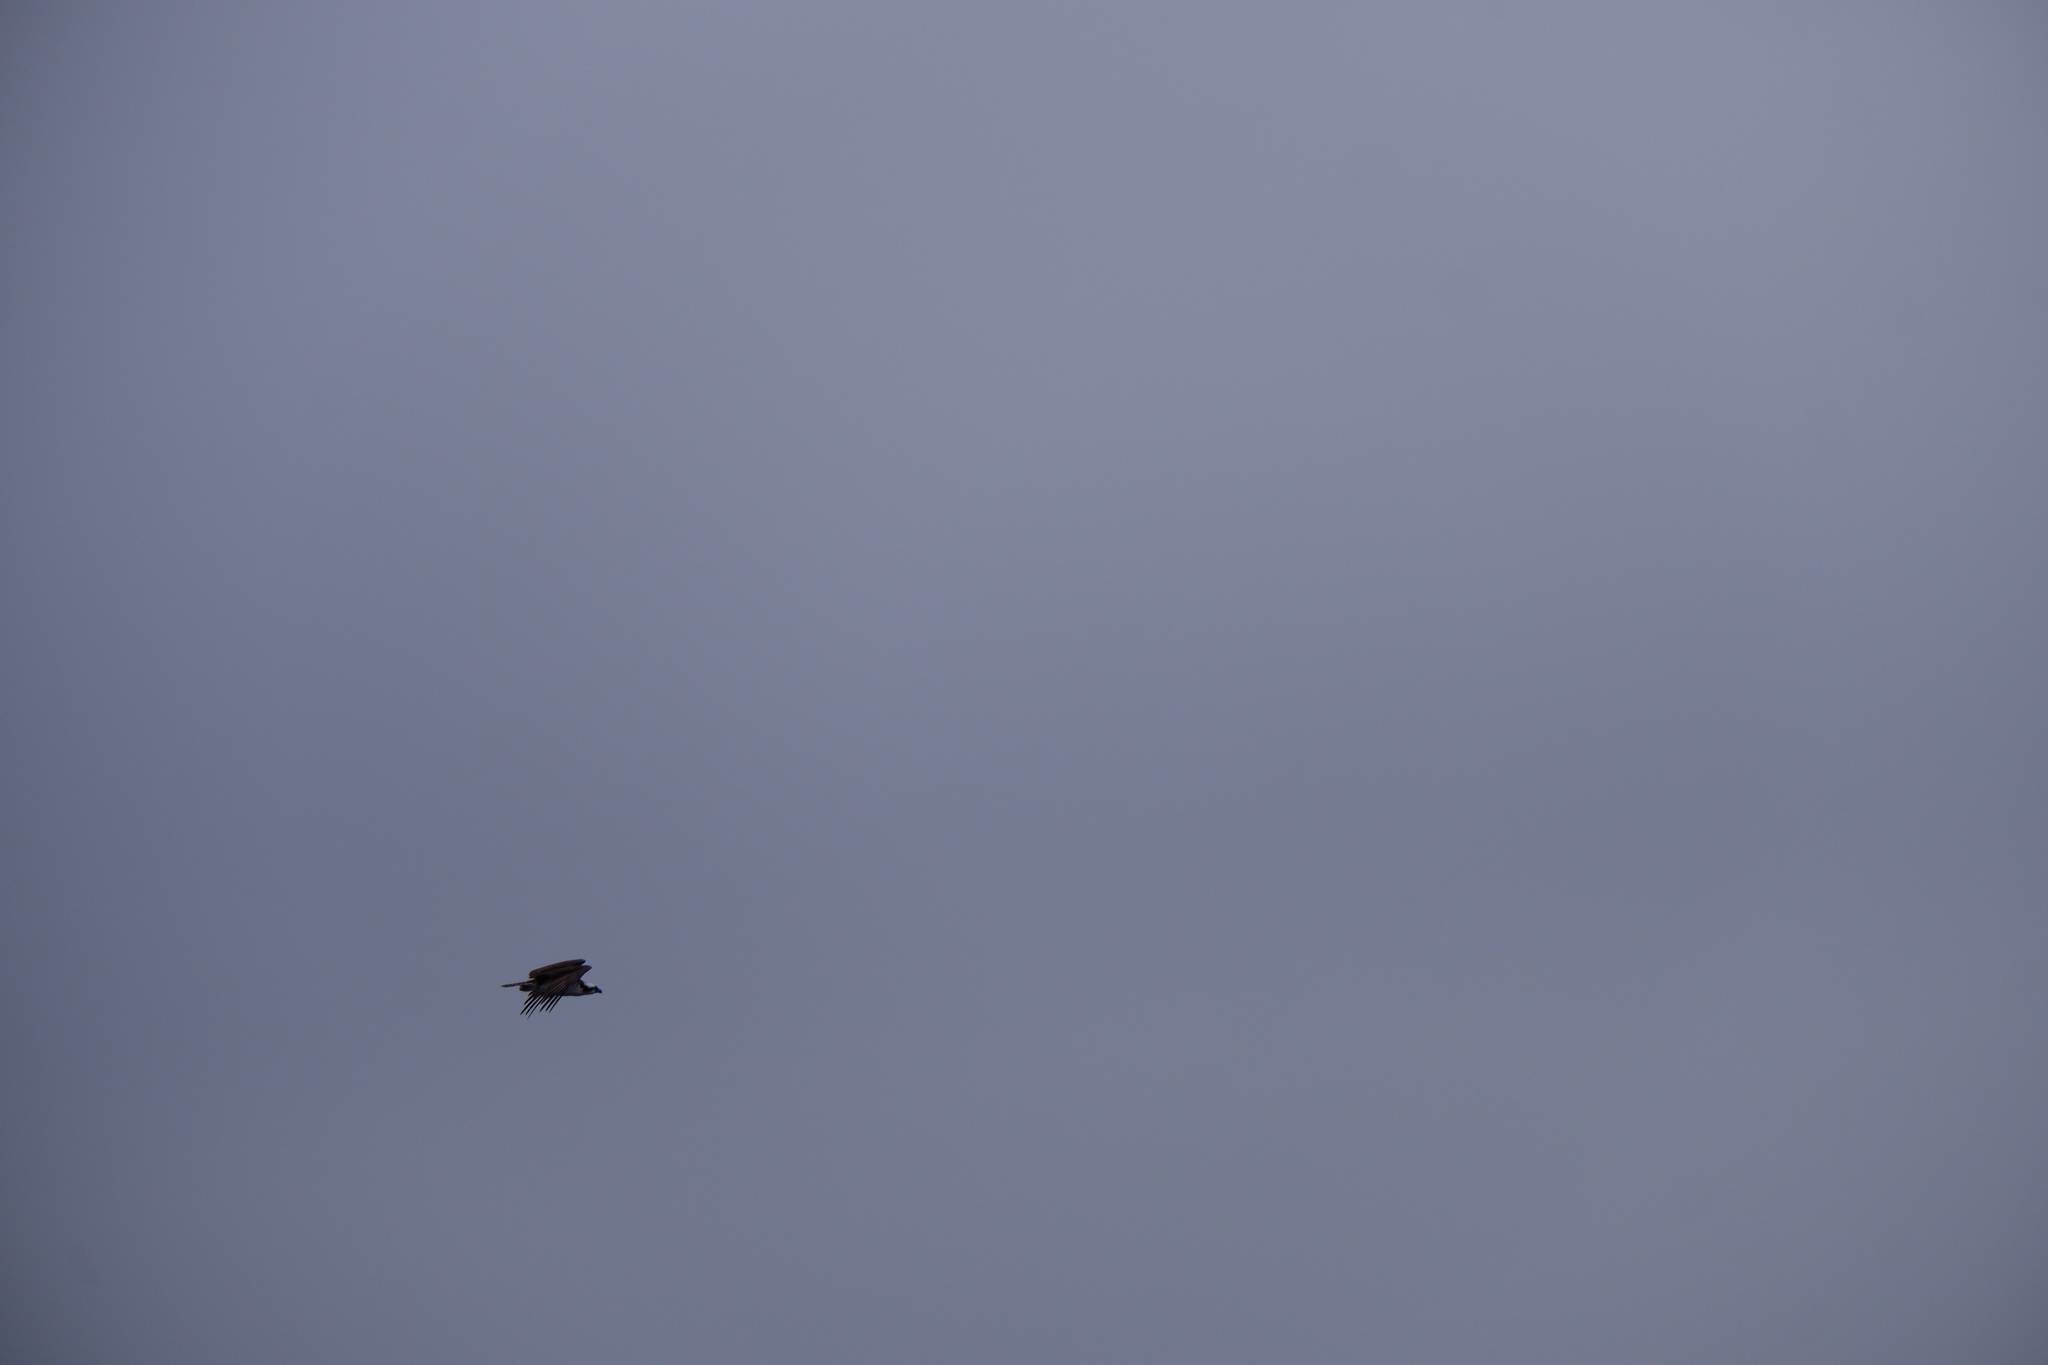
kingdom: Animalia
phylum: Chordata
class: Aves
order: Accipitriformes
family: Pandionidae
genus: Pandion
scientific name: Pandion haliaetus
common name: Osprey
